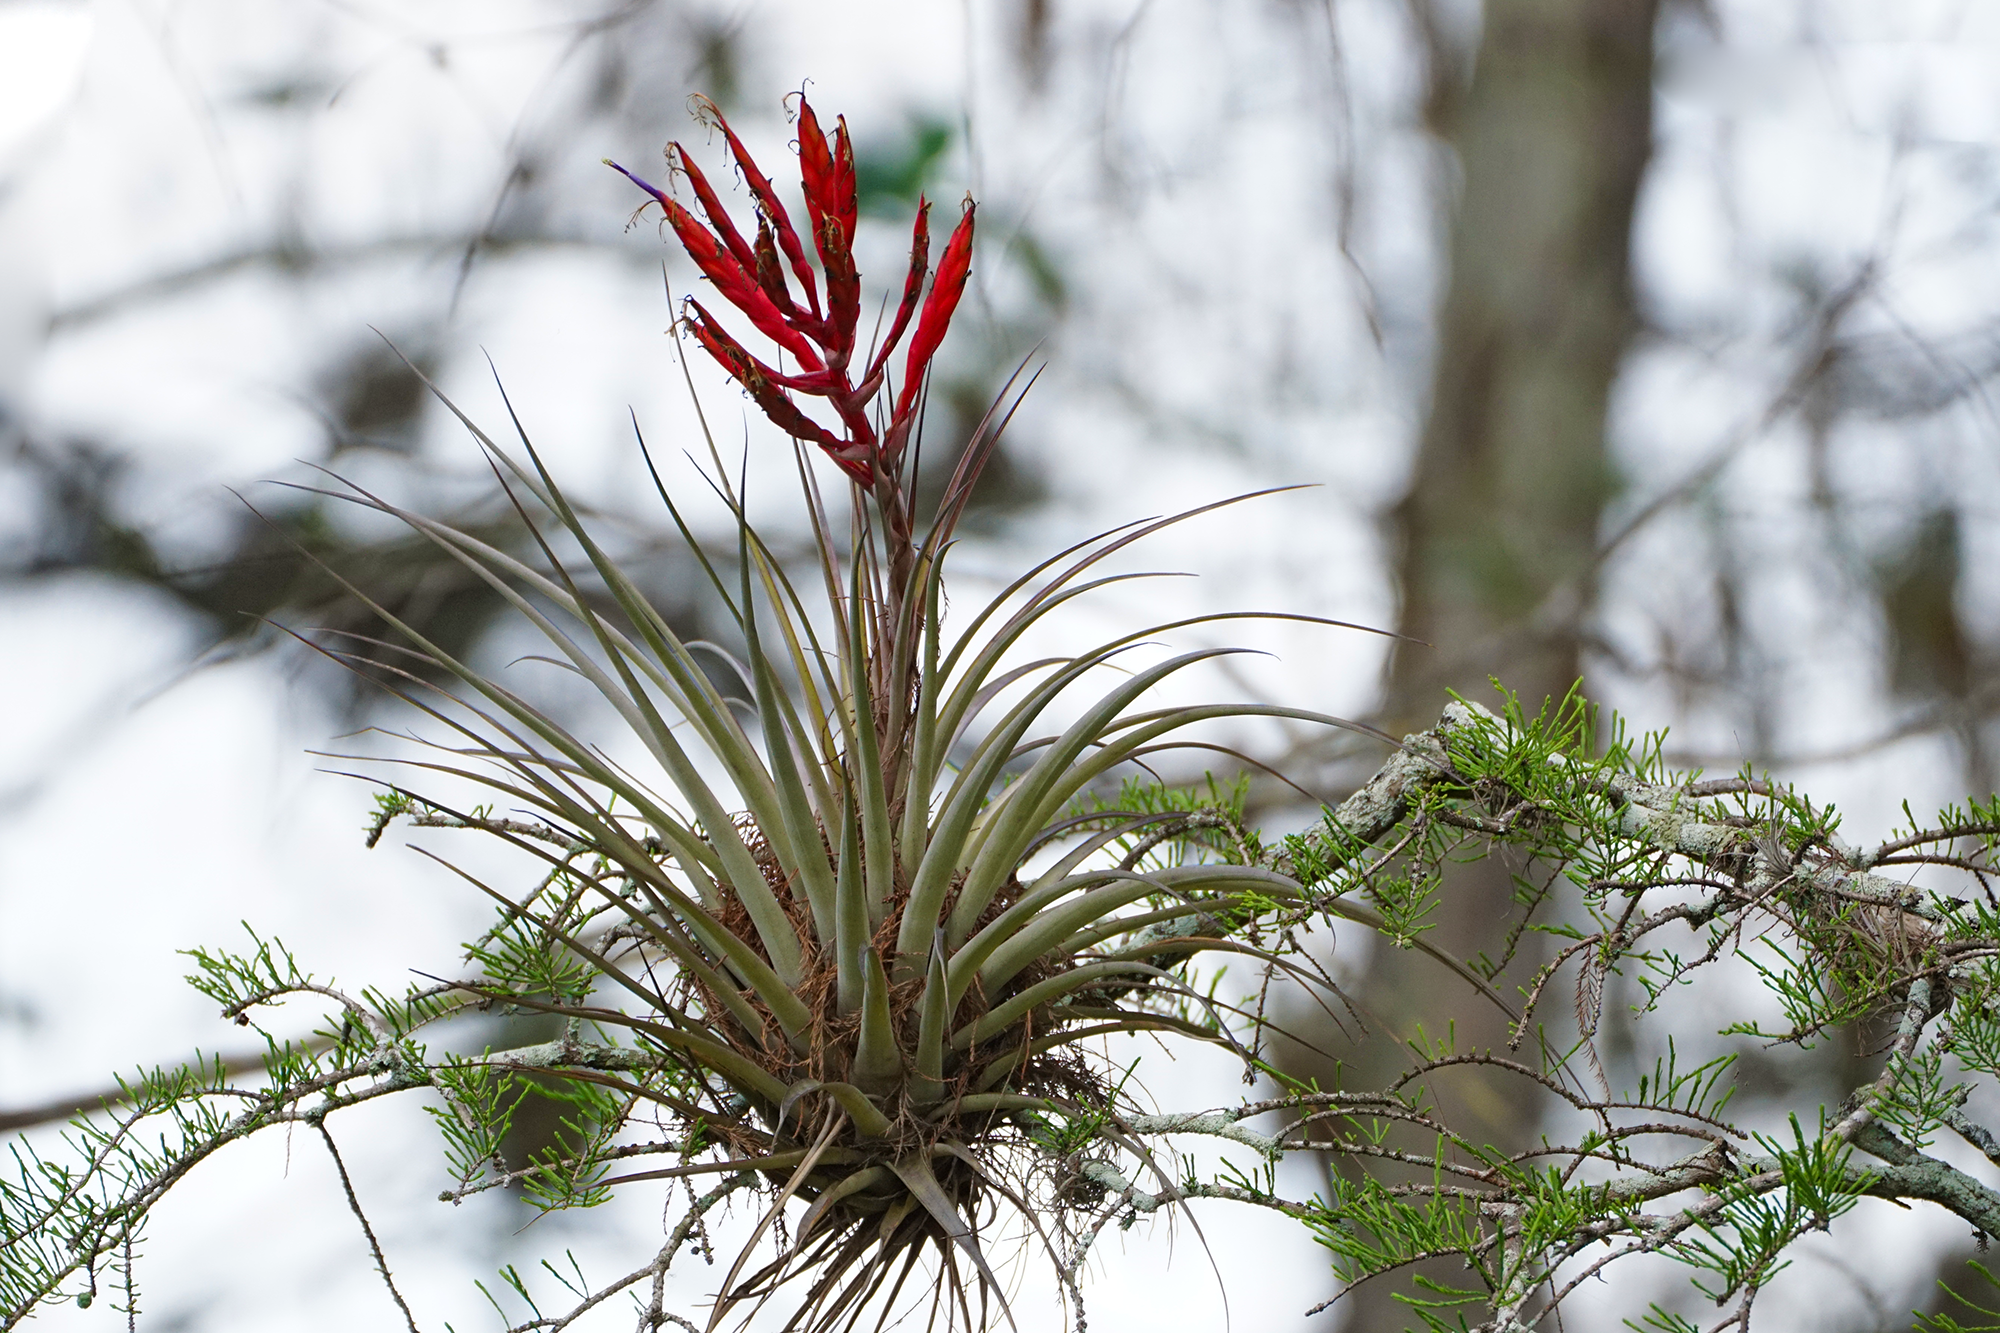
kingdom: Plantae
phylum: Tracheophyta
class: Liliopsida
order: Poales
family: Bromeliaceae
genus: Tillandsia
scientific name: Tillandsia fasciculata
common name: Giant airplant
